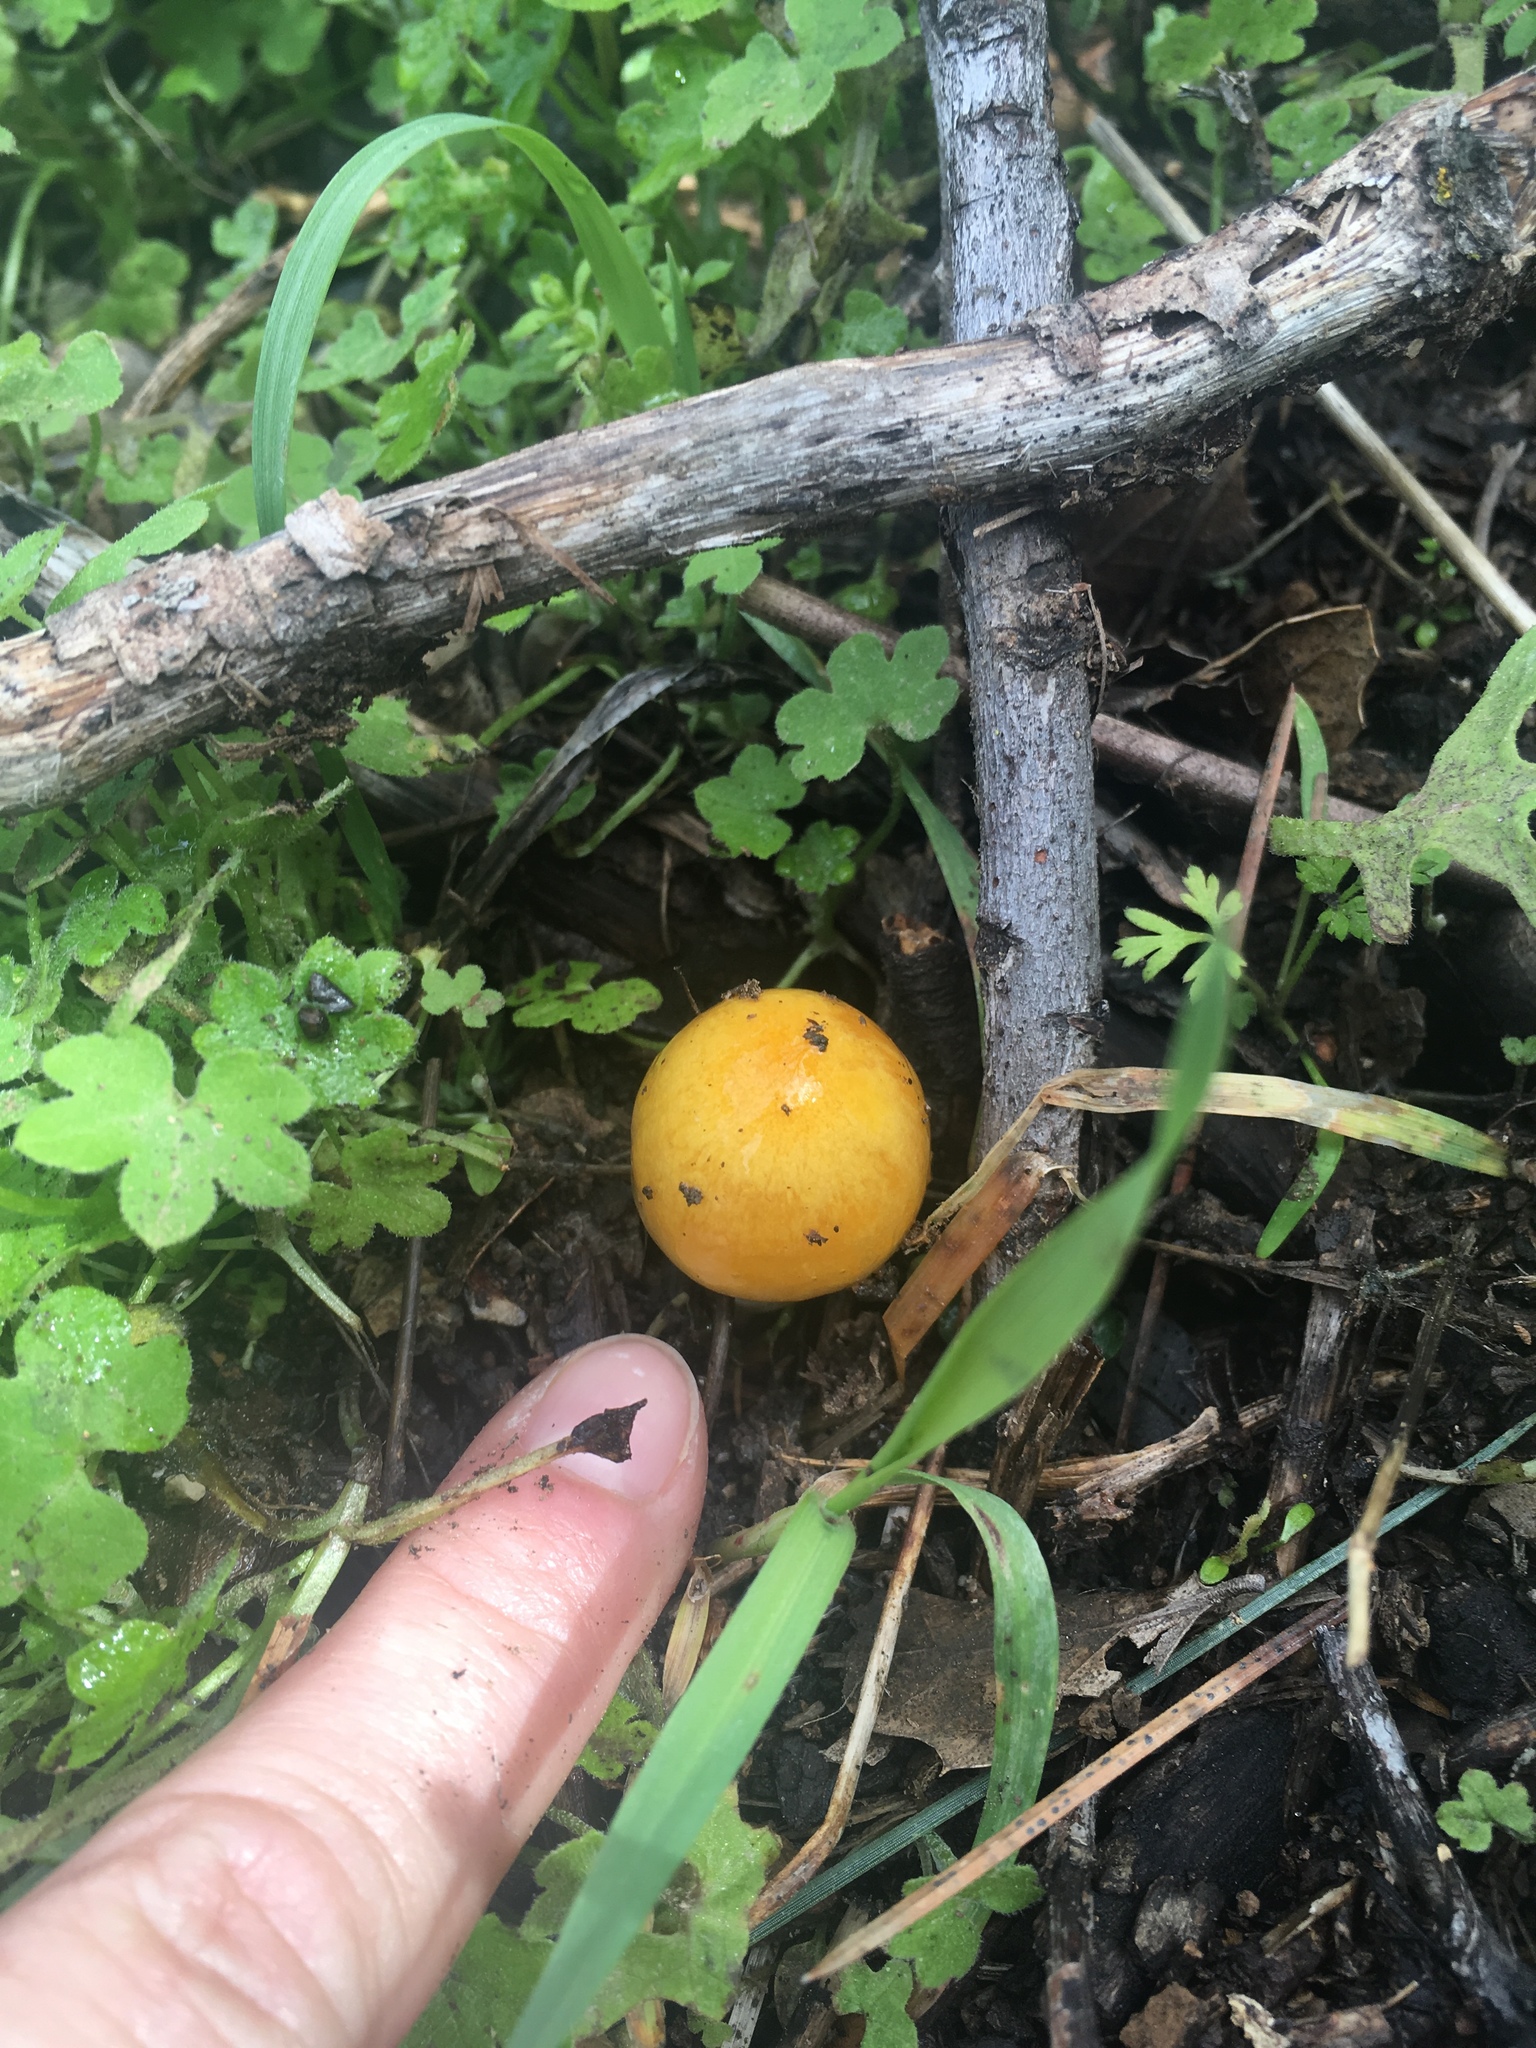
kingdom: Fungi
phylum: Basidiomycota
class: Agaricomycetes
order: Agaricales
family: Bolbitiaceae
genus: Bolbitius
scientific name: Bolbitius titubans
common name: Yellow fieldcap
